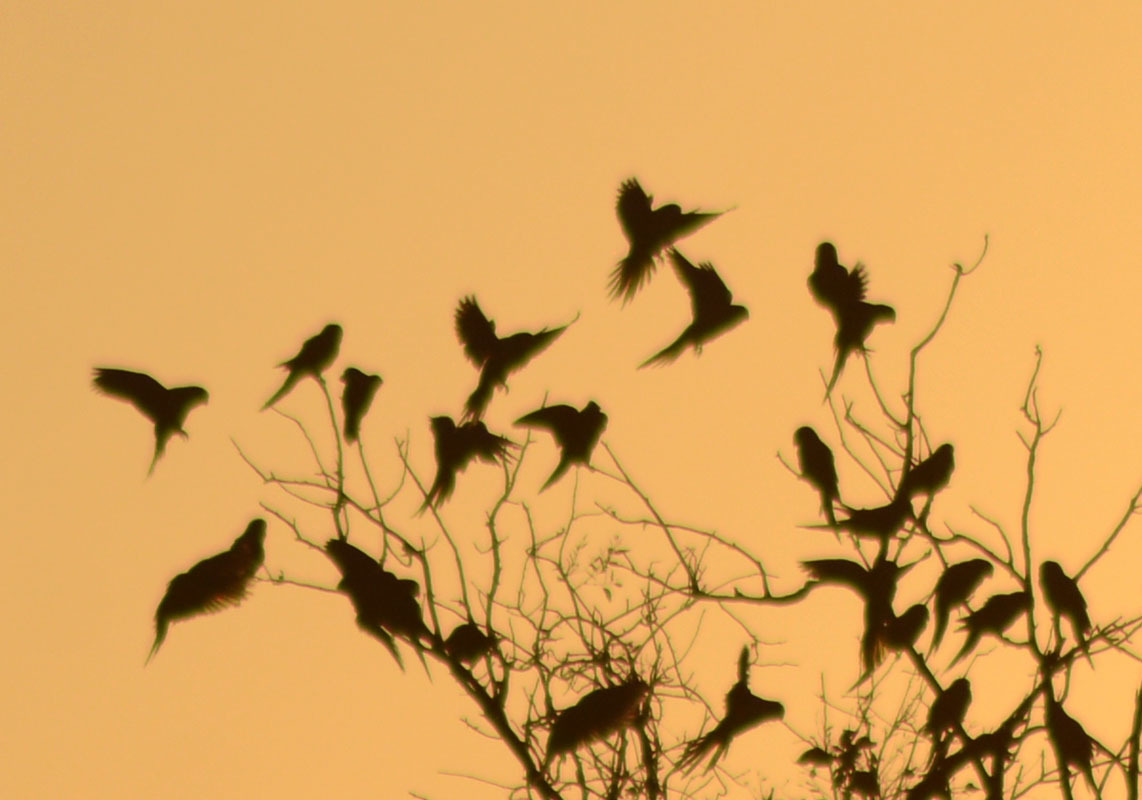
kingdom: Animalia
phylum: Chordata
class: Aves
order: Psittaciformes
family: Psittacidae
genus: Myiopsitta
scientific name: Myiopsitta monachus
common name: Monk parakeet
